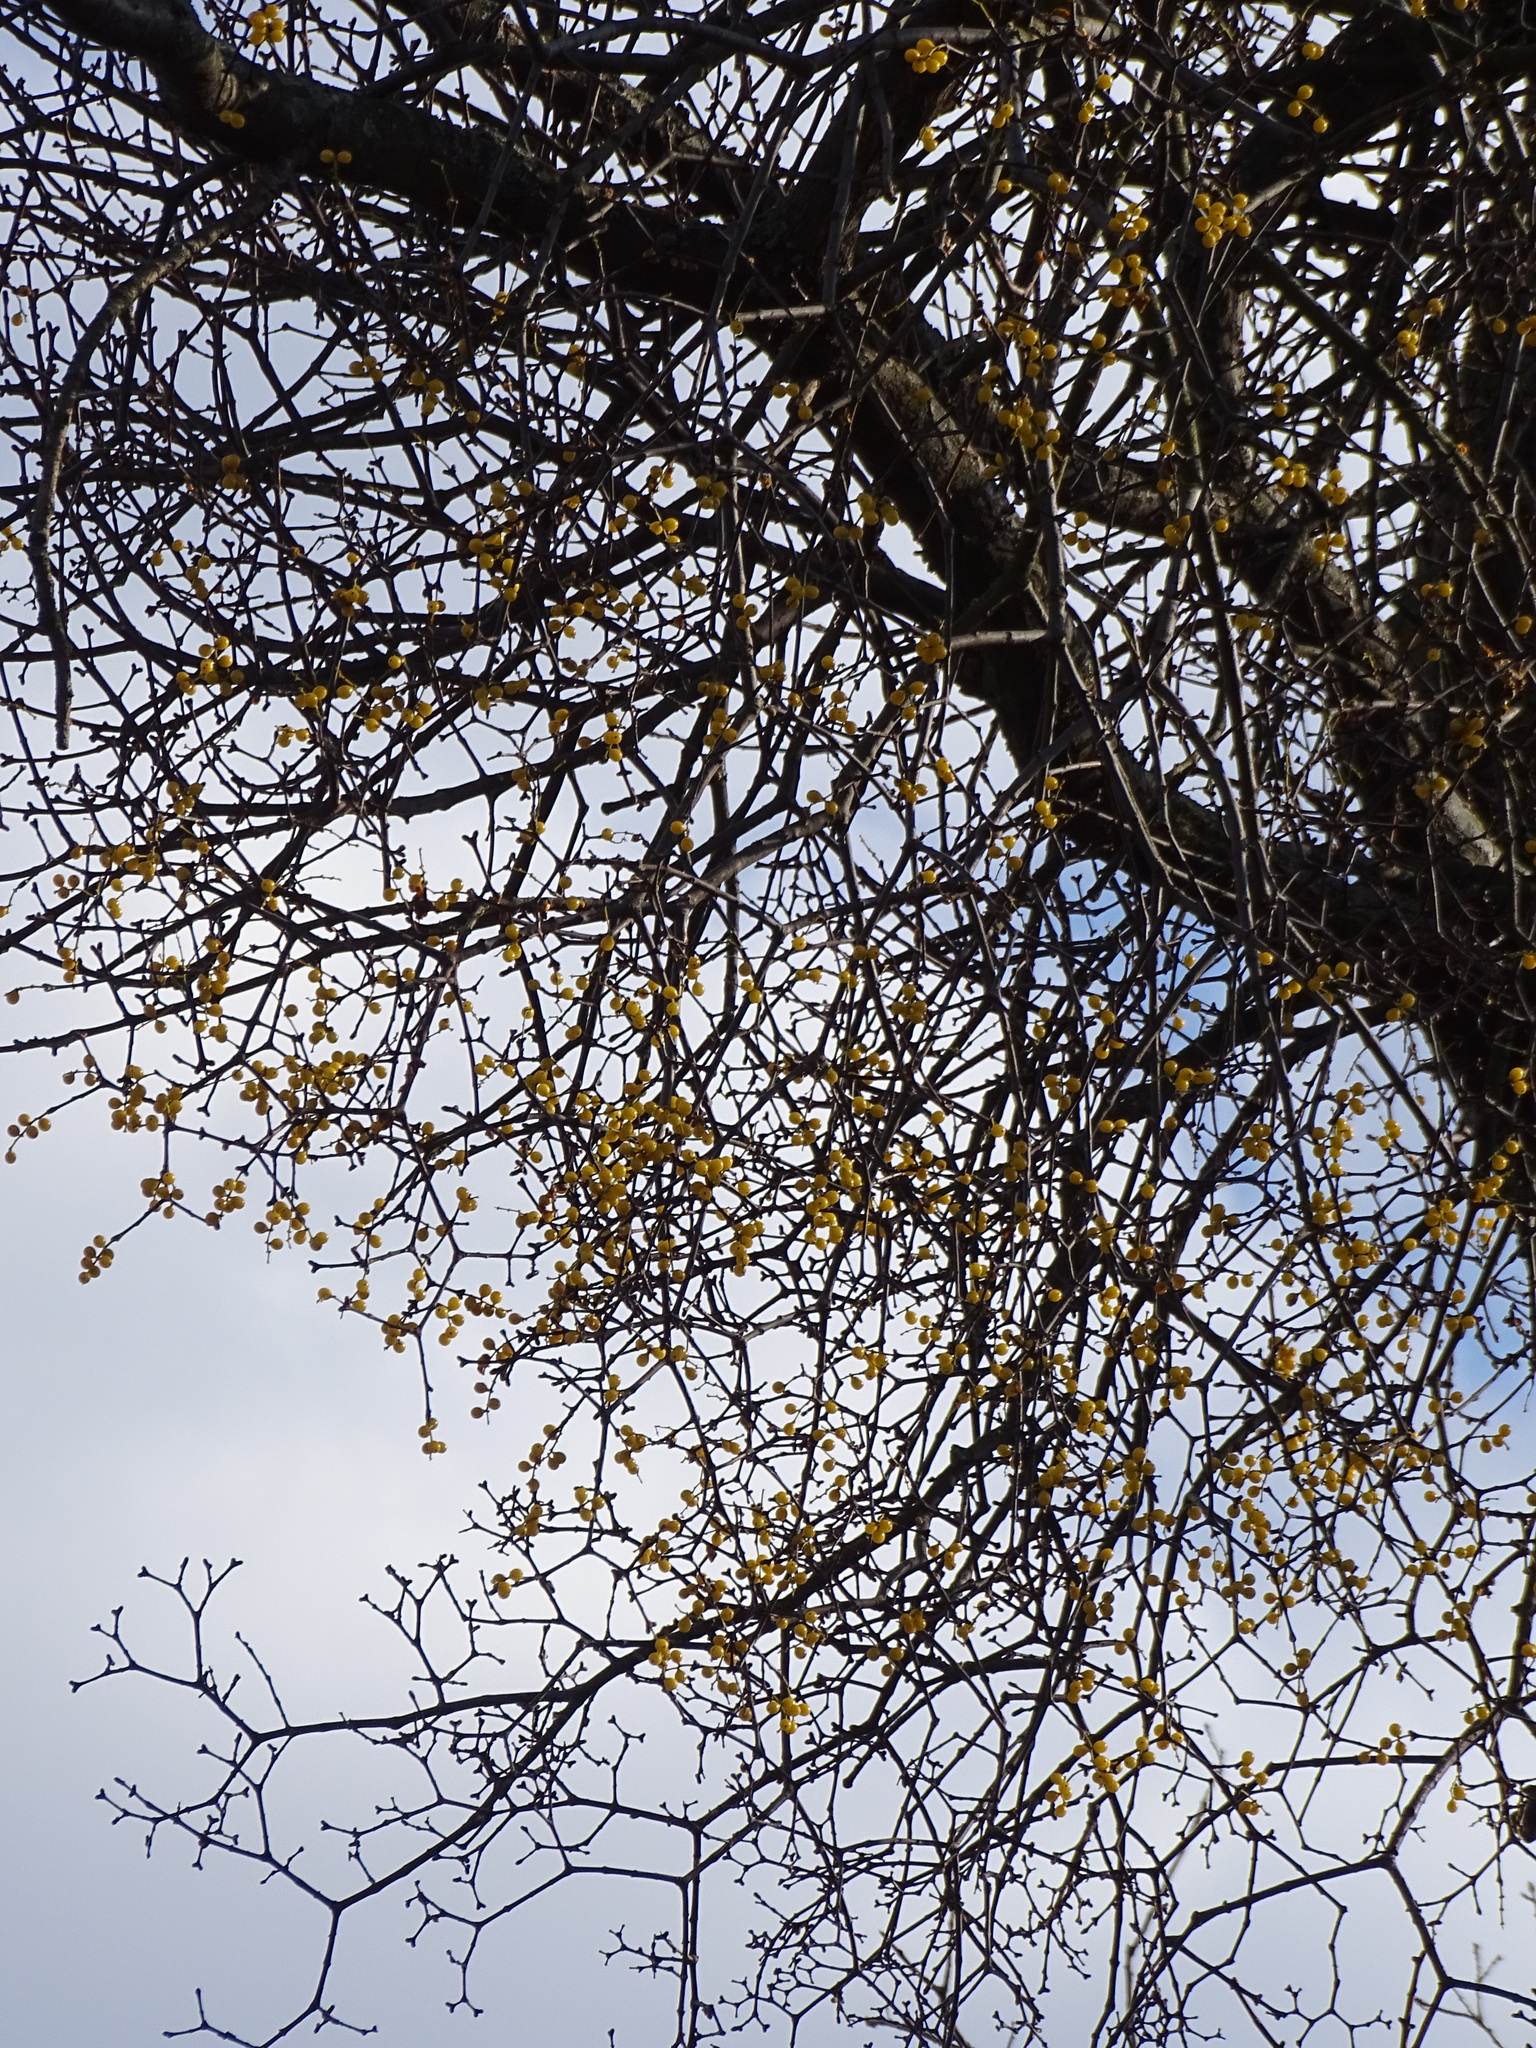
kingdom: Plantae
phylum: Tracheophyta
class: Magnoliopsida
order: Santalales
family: Loranthaceae
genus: Loranthus
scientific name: Loranthus europaeus
